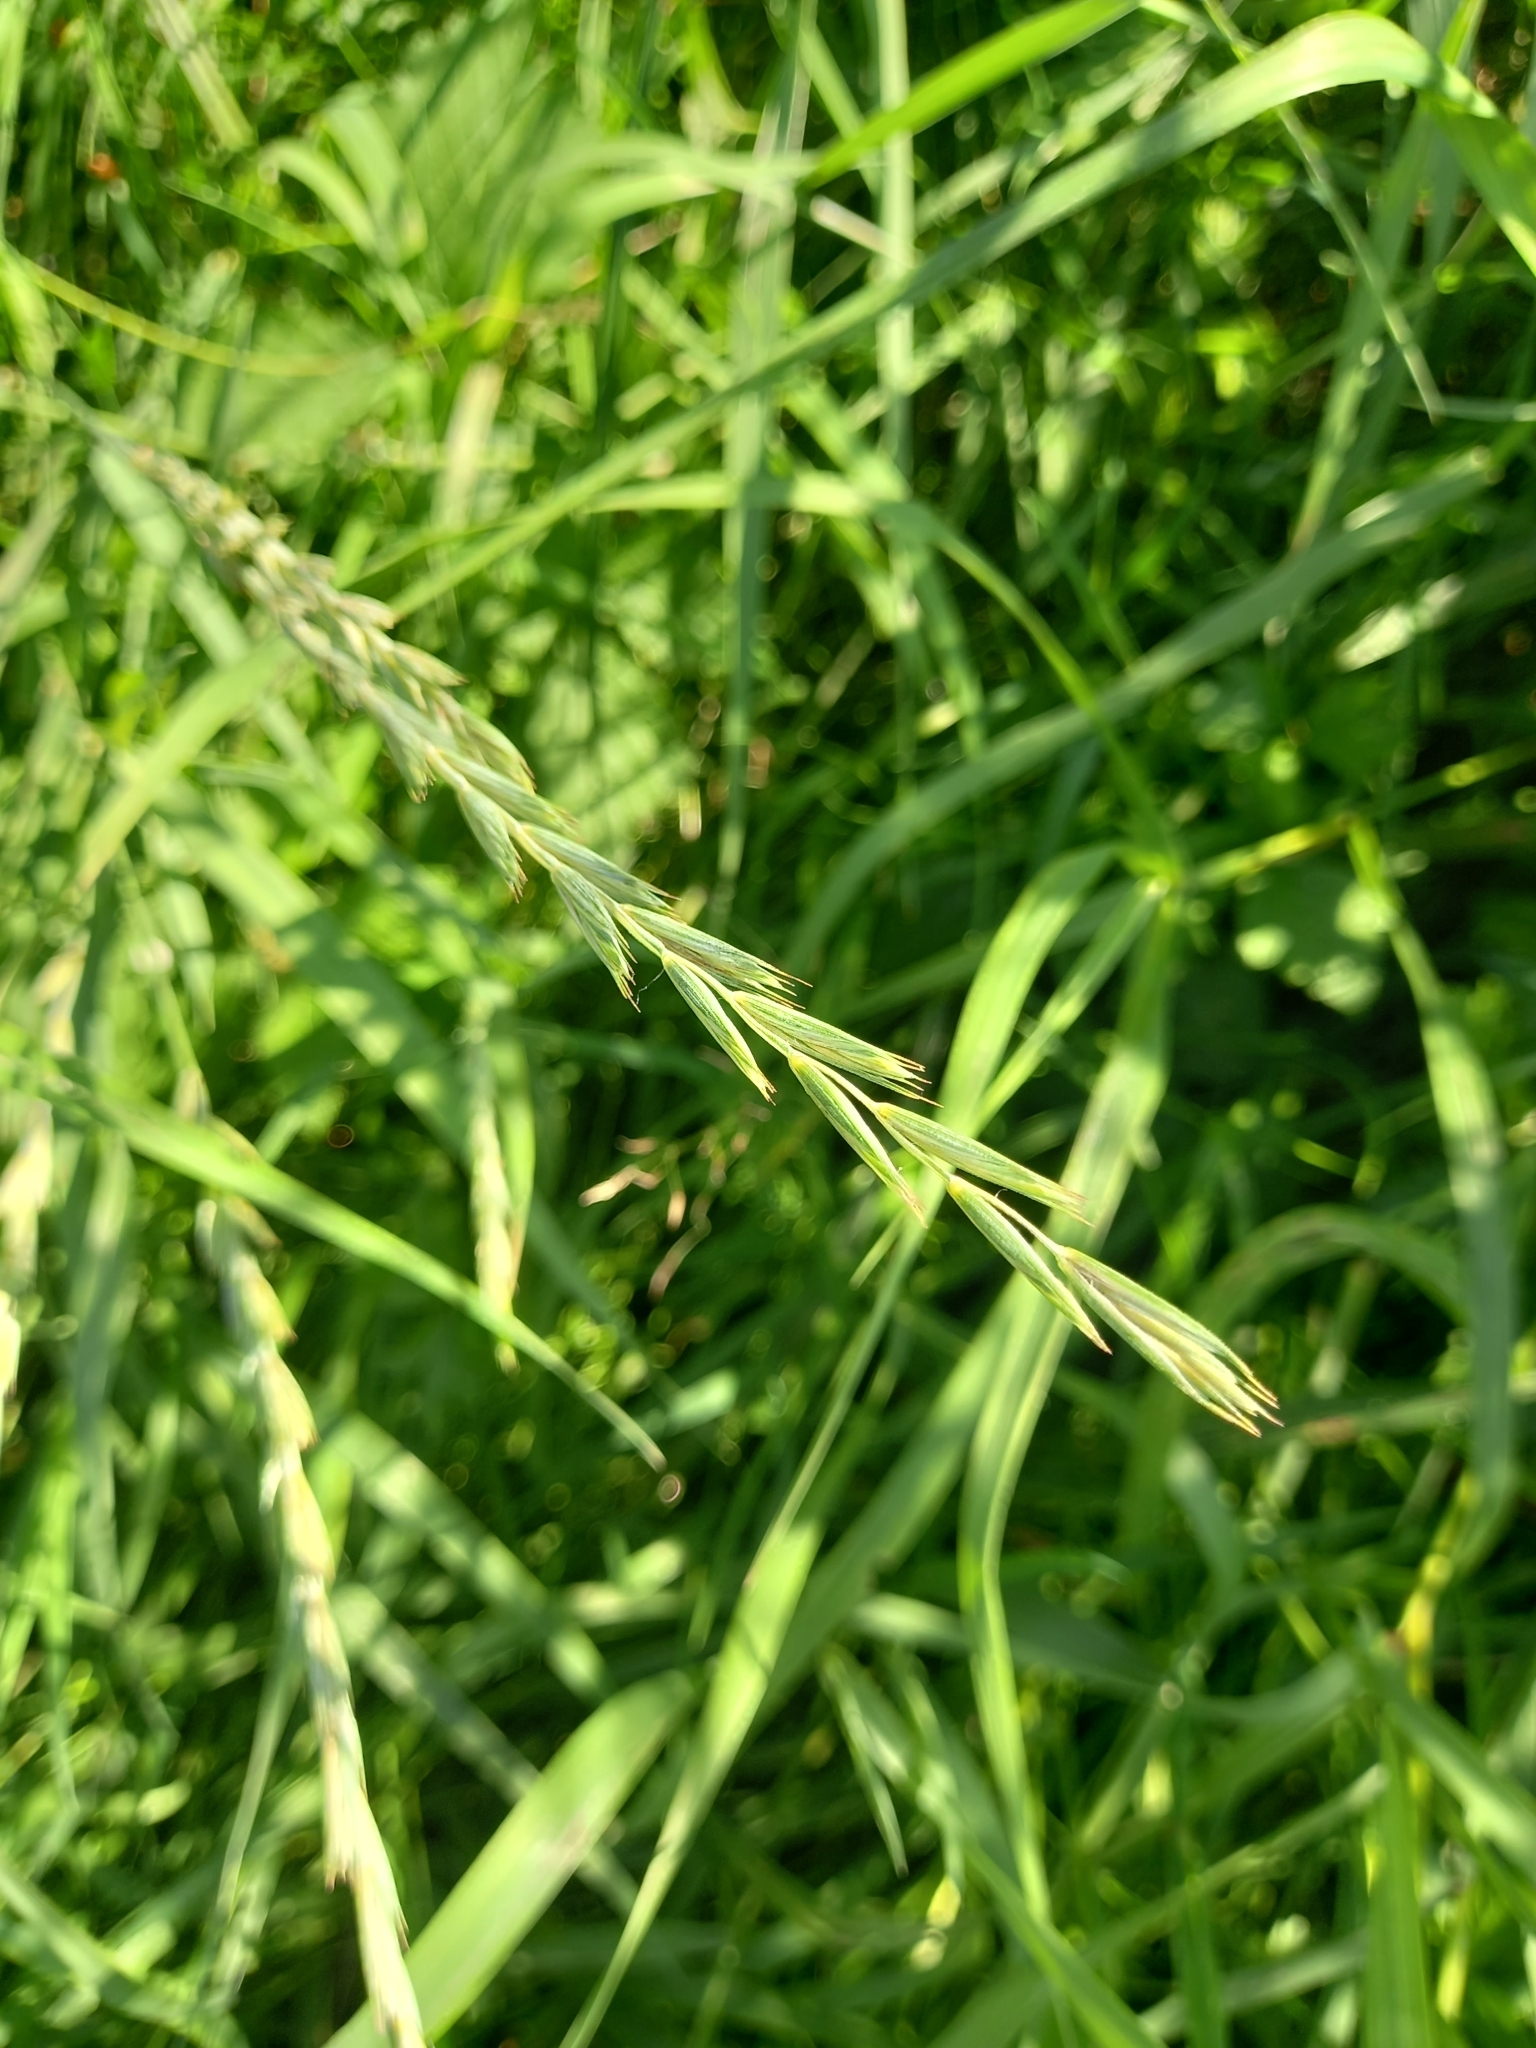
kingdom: Plantae
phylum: Tracheophyta
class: Liliopsida
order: Poales
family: Poaceae
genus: Elymus
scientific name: Elymus repens
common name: Quackgrass
